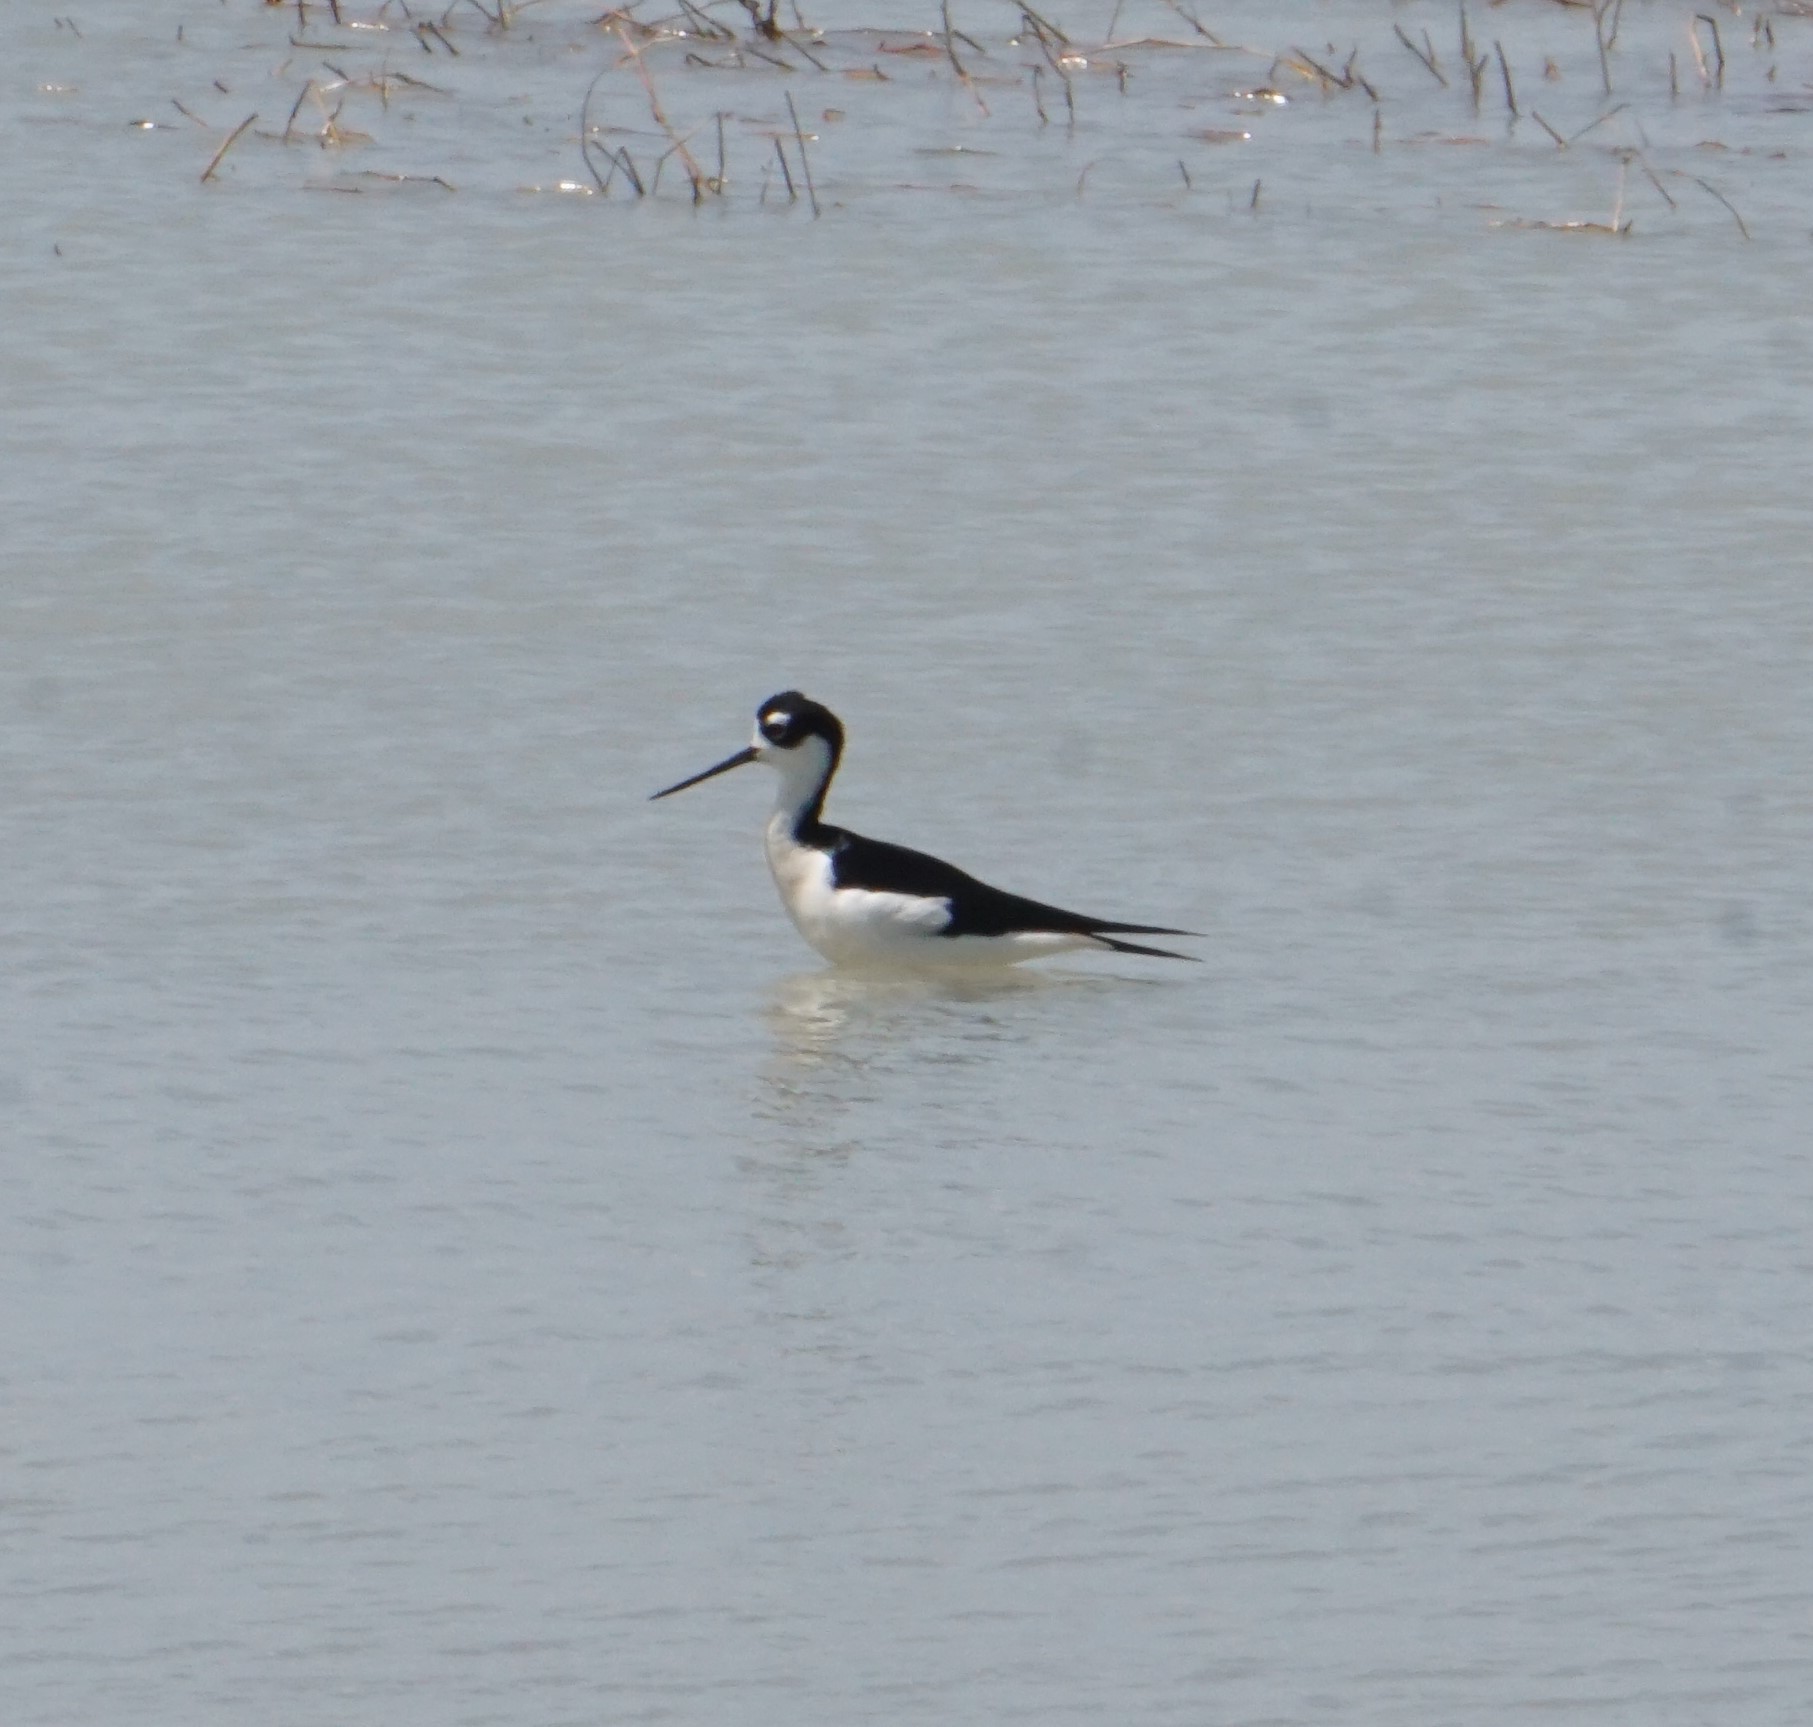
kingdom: Animalia
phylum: Chordata
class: Aves
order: Charadriiformes
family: Recurvirostridae
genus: Himantopus
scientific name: Himantopus mexicanus
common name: Black-necked stilt
